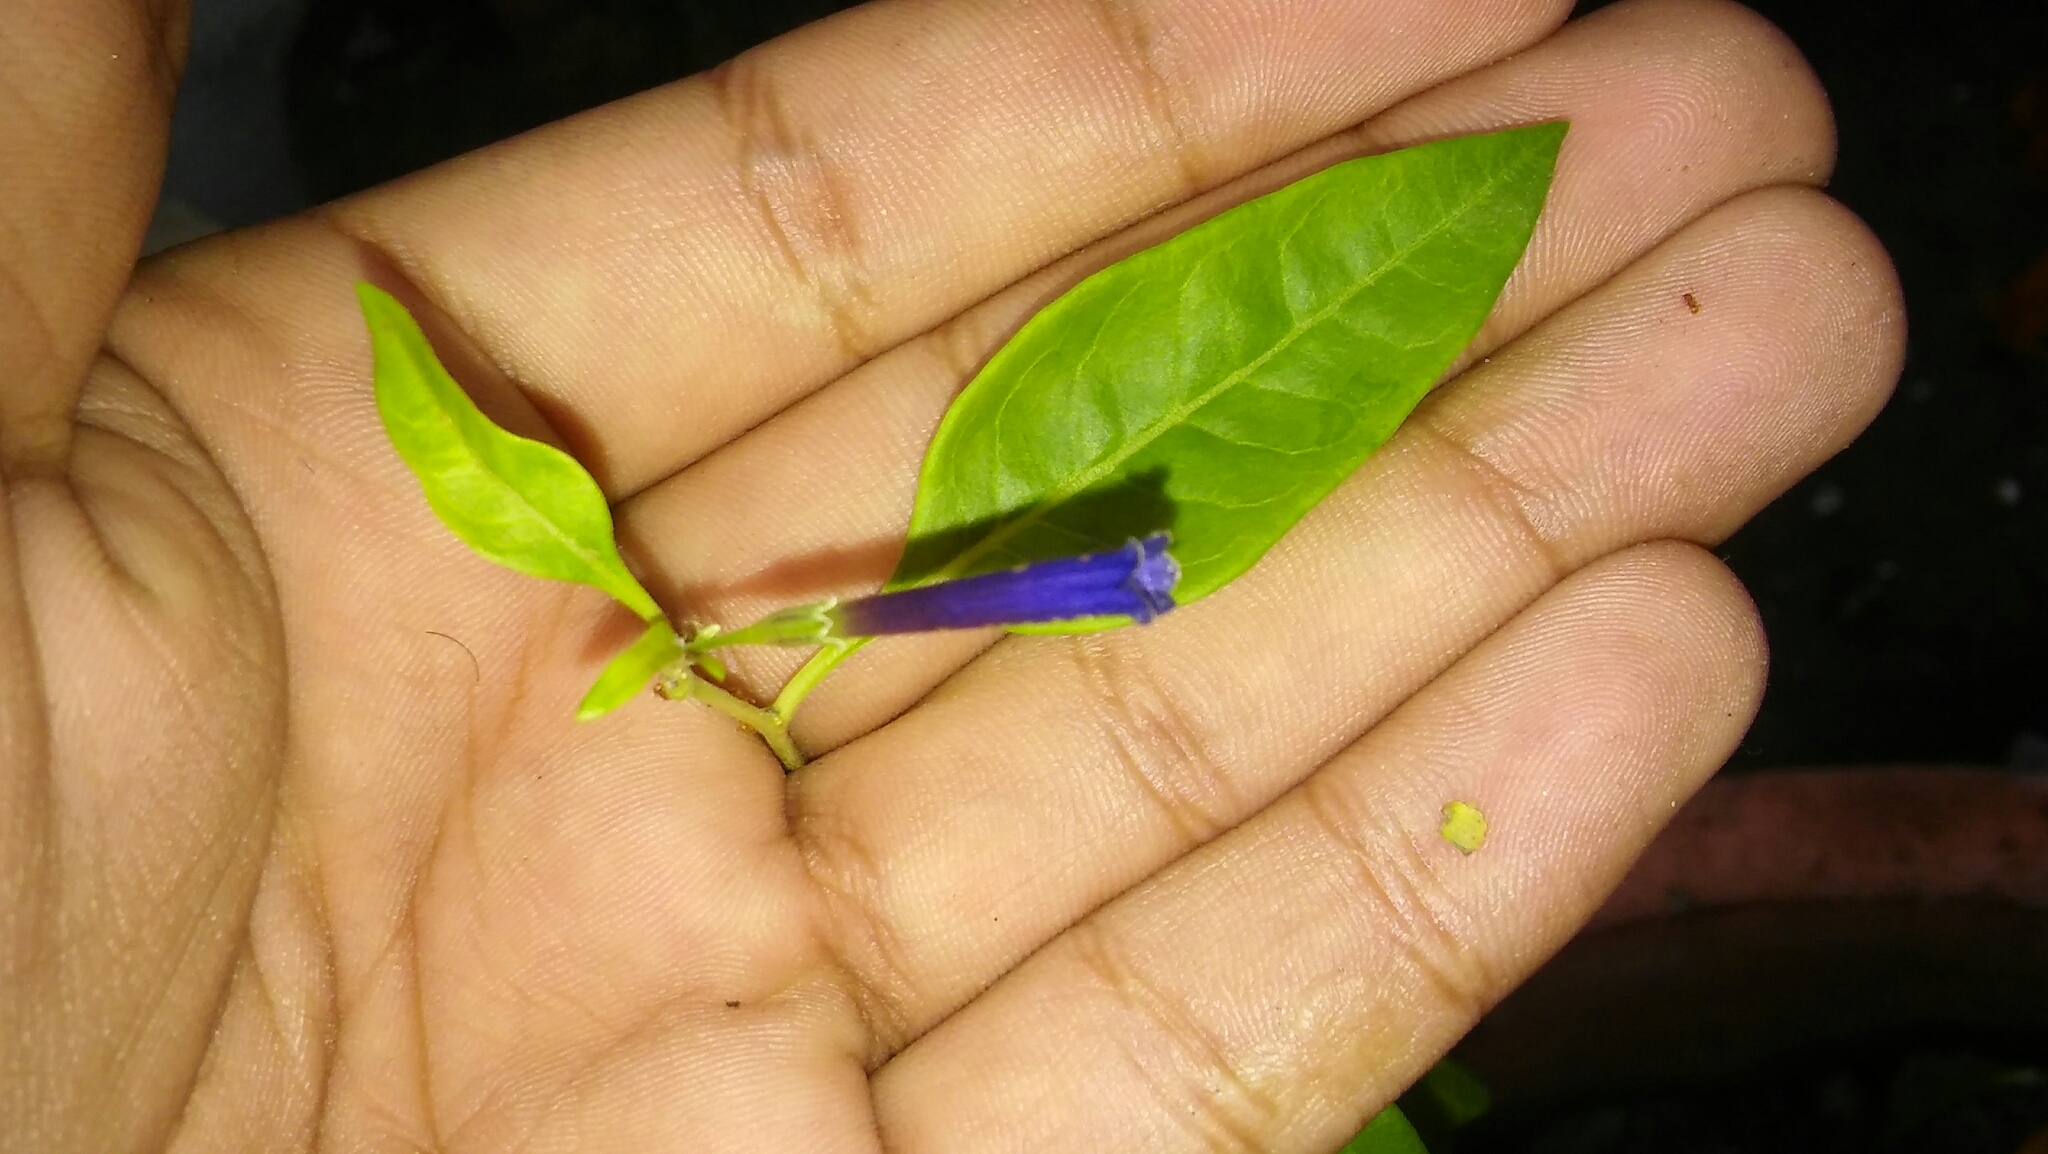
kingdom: Plantae
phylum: Tracheophyta
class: Magnoliopsida
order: Solanales
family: Solanaceae
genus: Lycium
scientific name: Lycium cestroides
